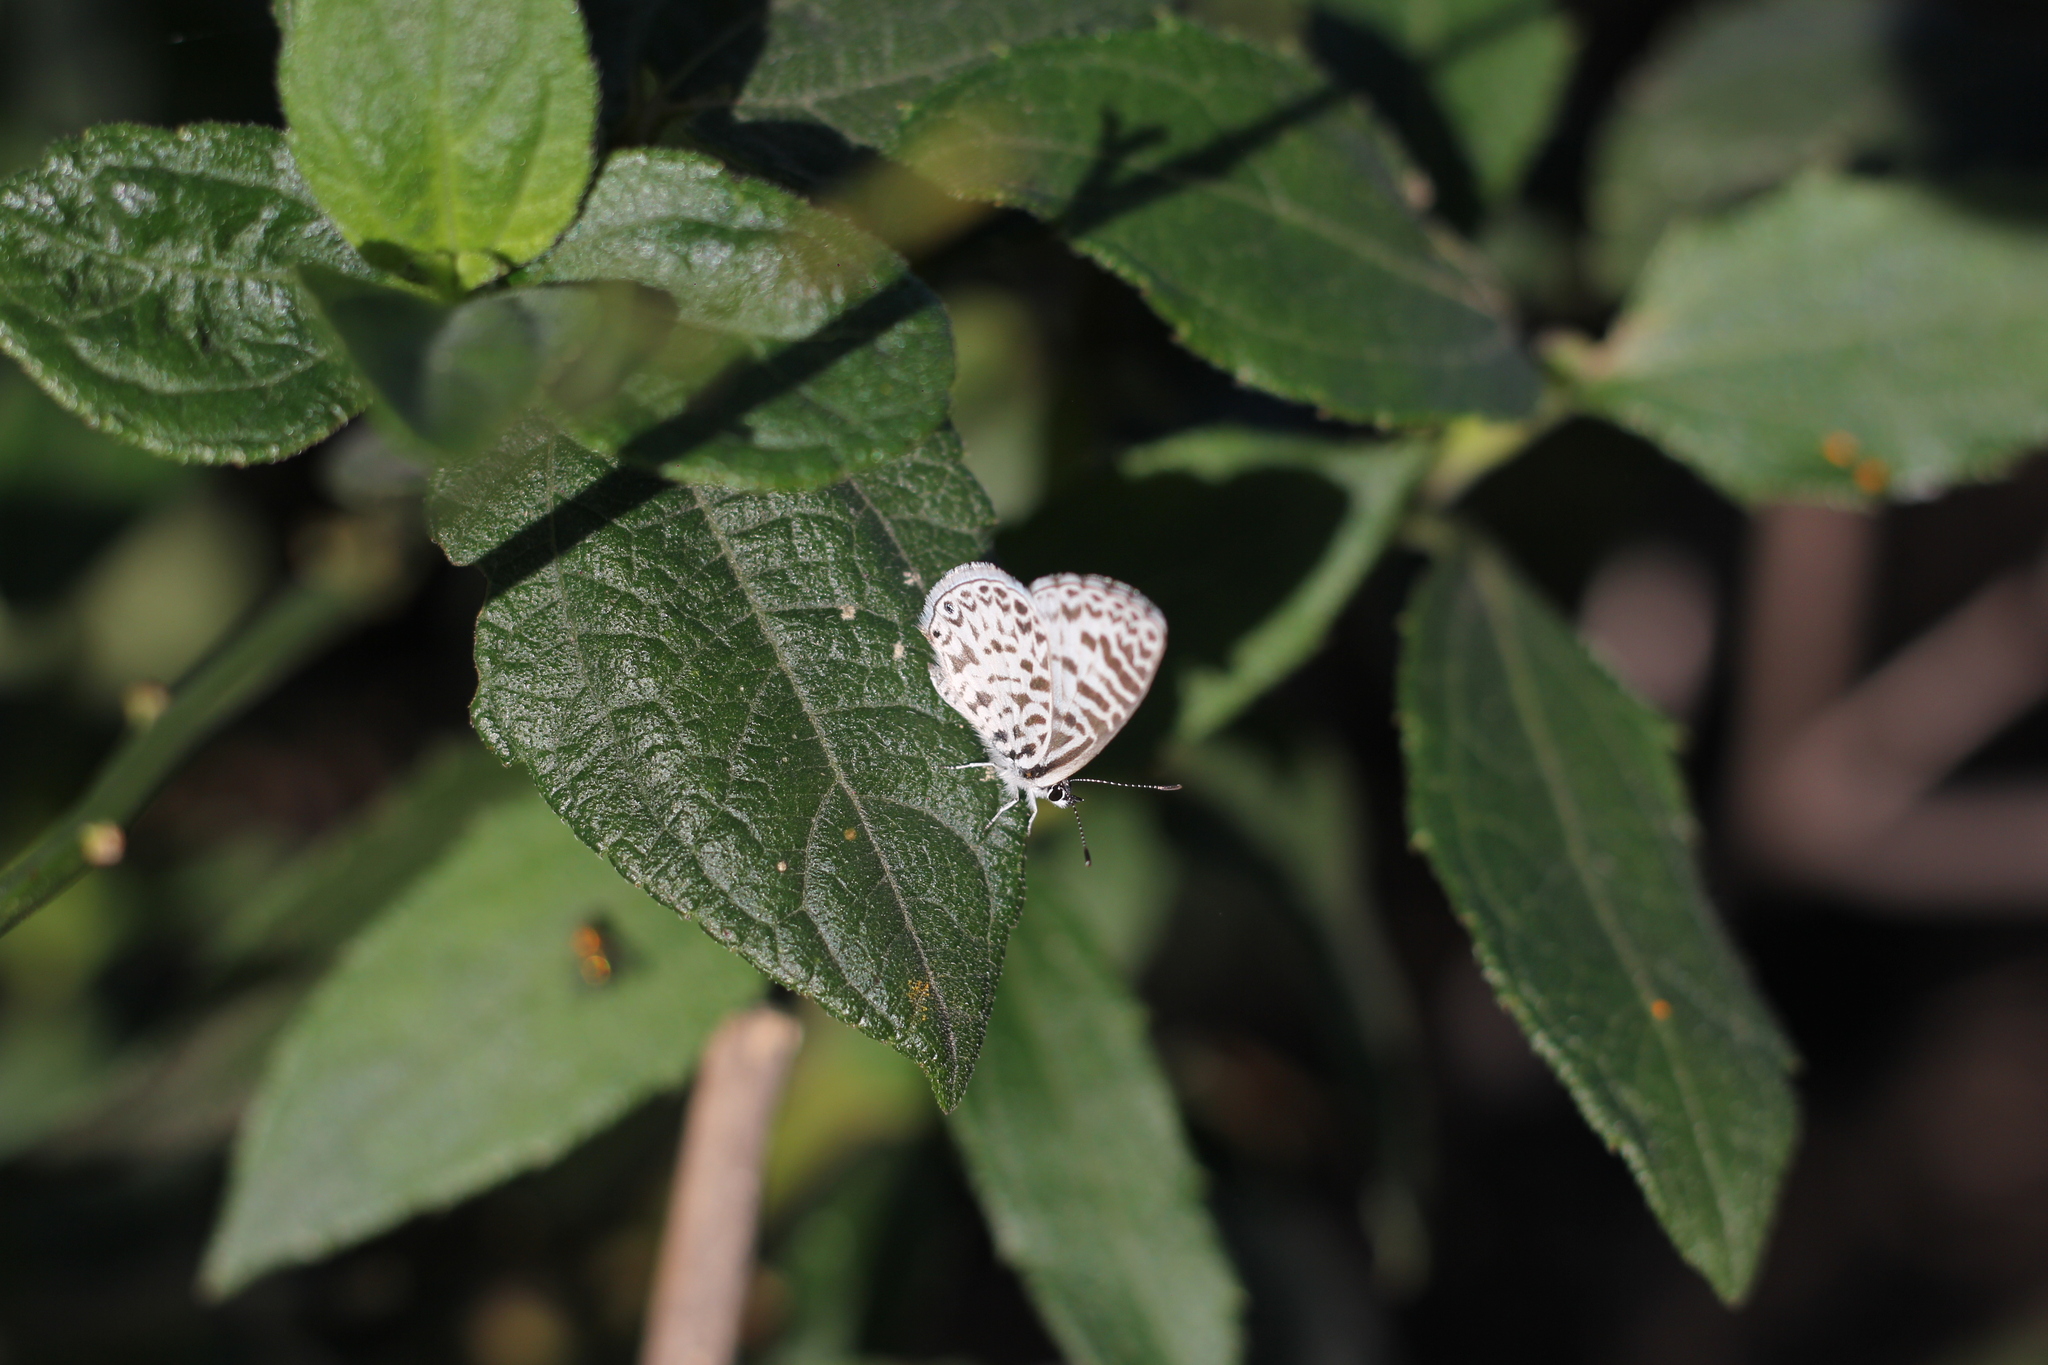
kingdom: Animalia
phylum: Arthropoda
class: Insecta
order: Lepidoptera
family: Lycaenidae
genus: Leptotes
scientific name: Leptotes cassius
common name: Cassius blue
